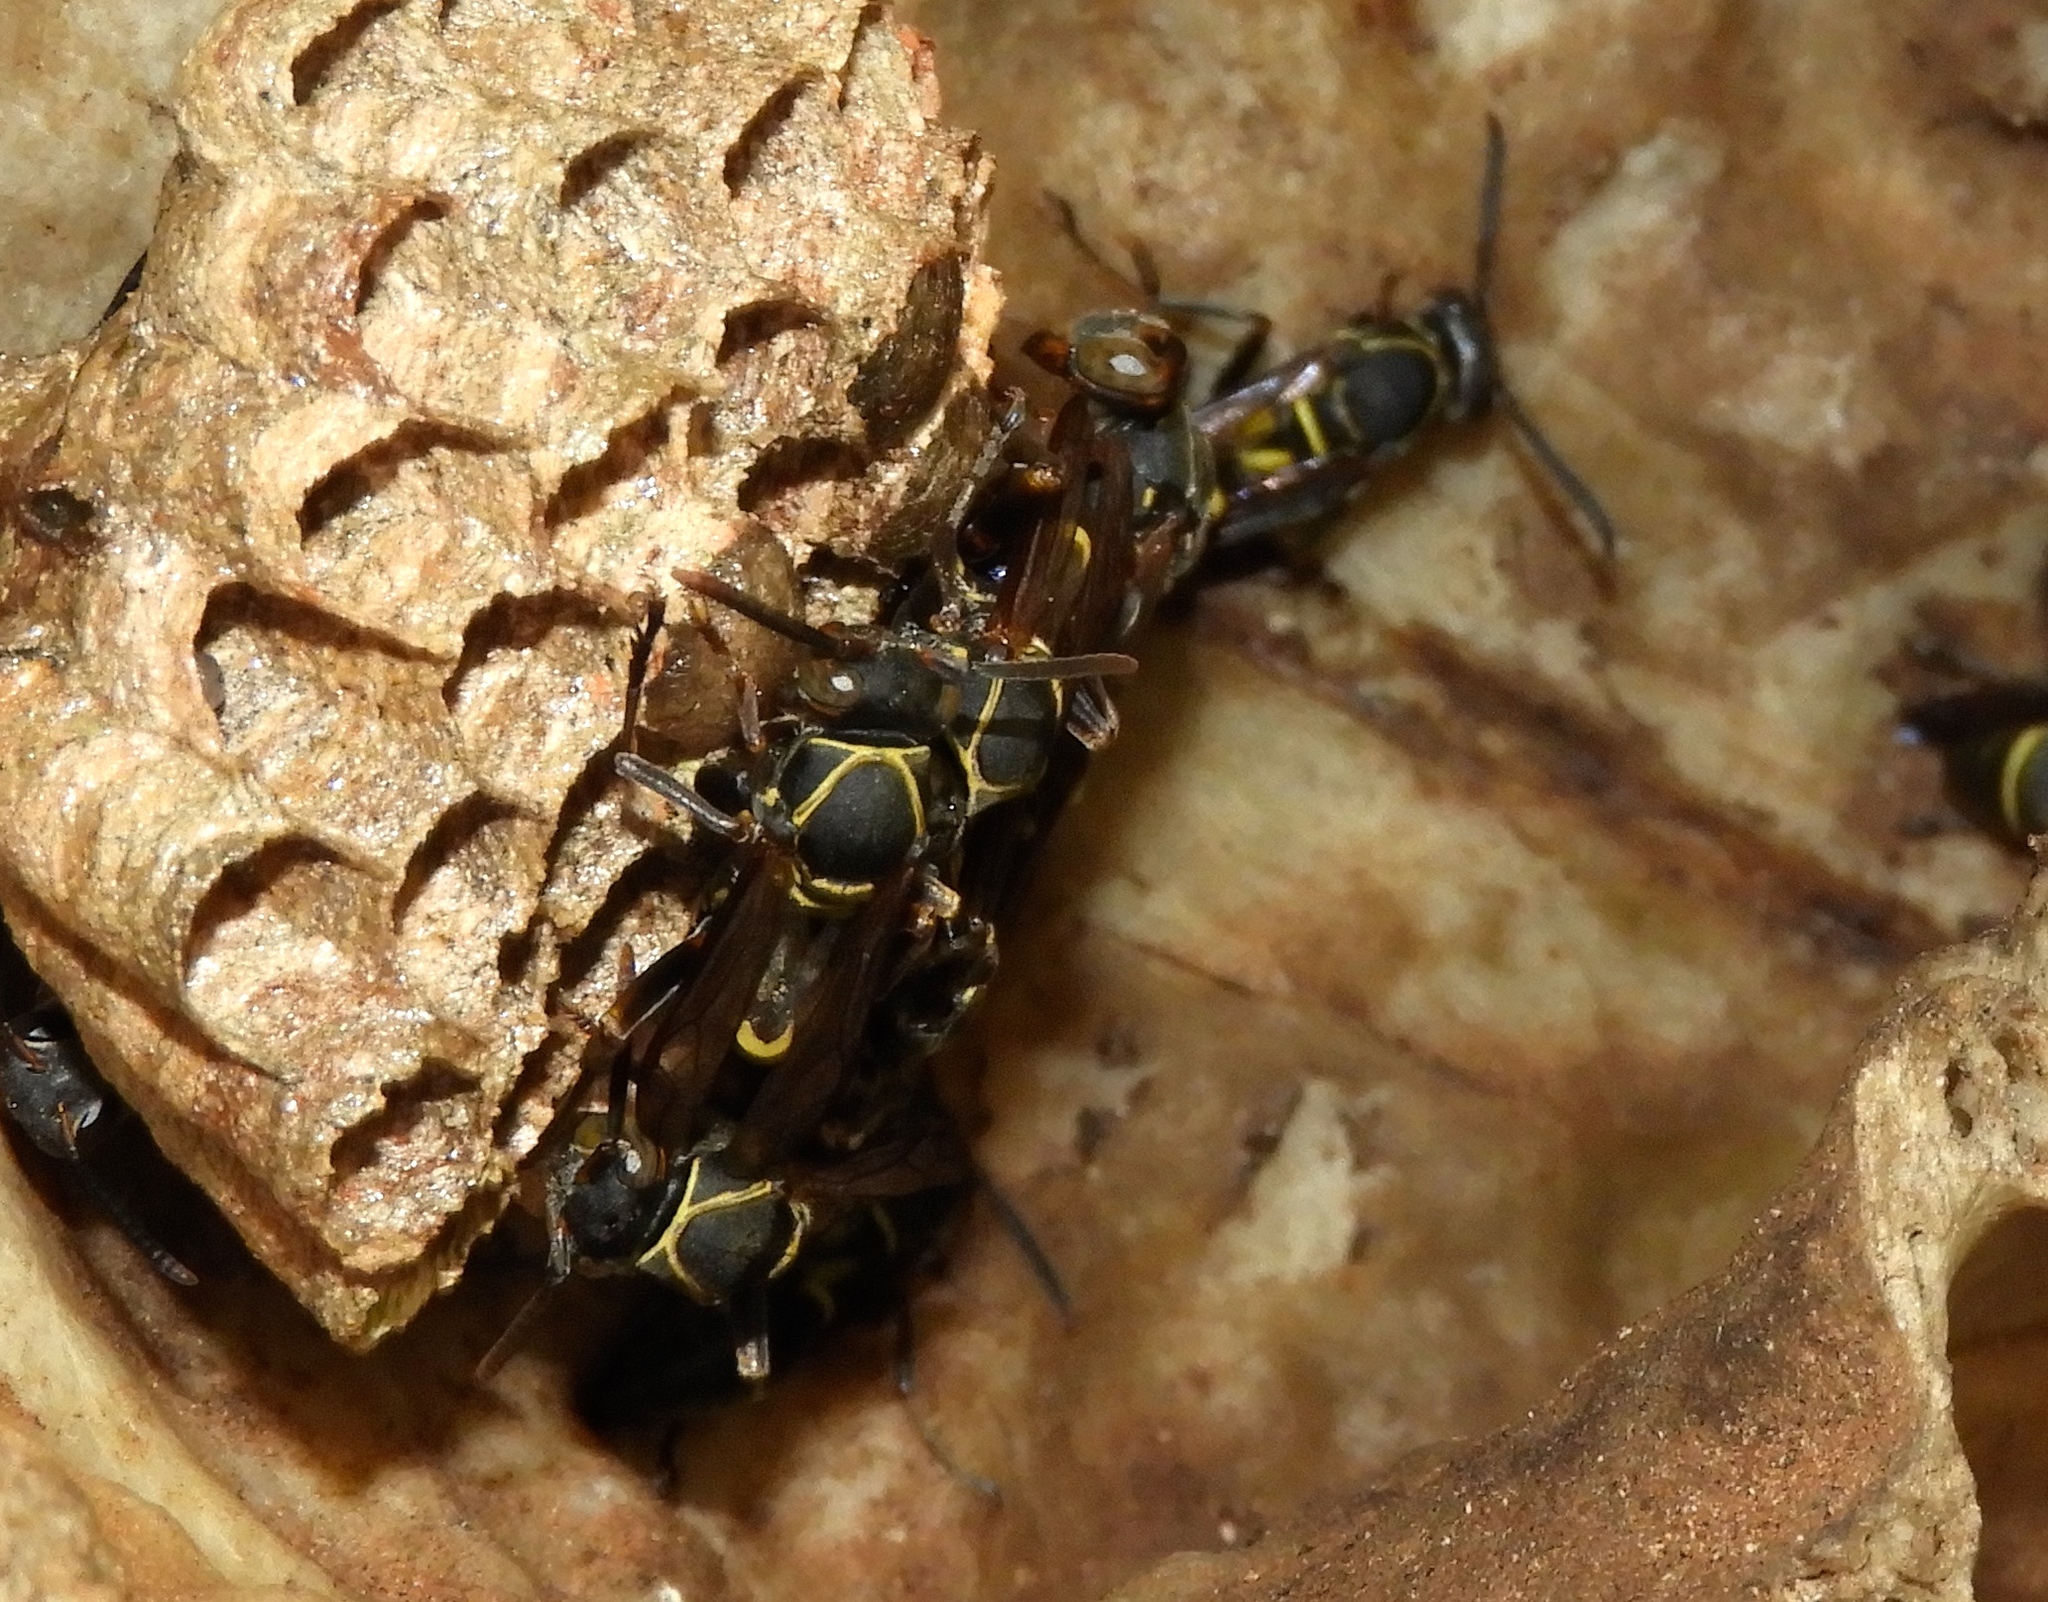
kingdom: Animalia
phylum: Arthropoda
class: Insecta
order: Hymenoptera
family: Vespidae
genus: Mischocyttarus
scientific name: Mischocyttarus
